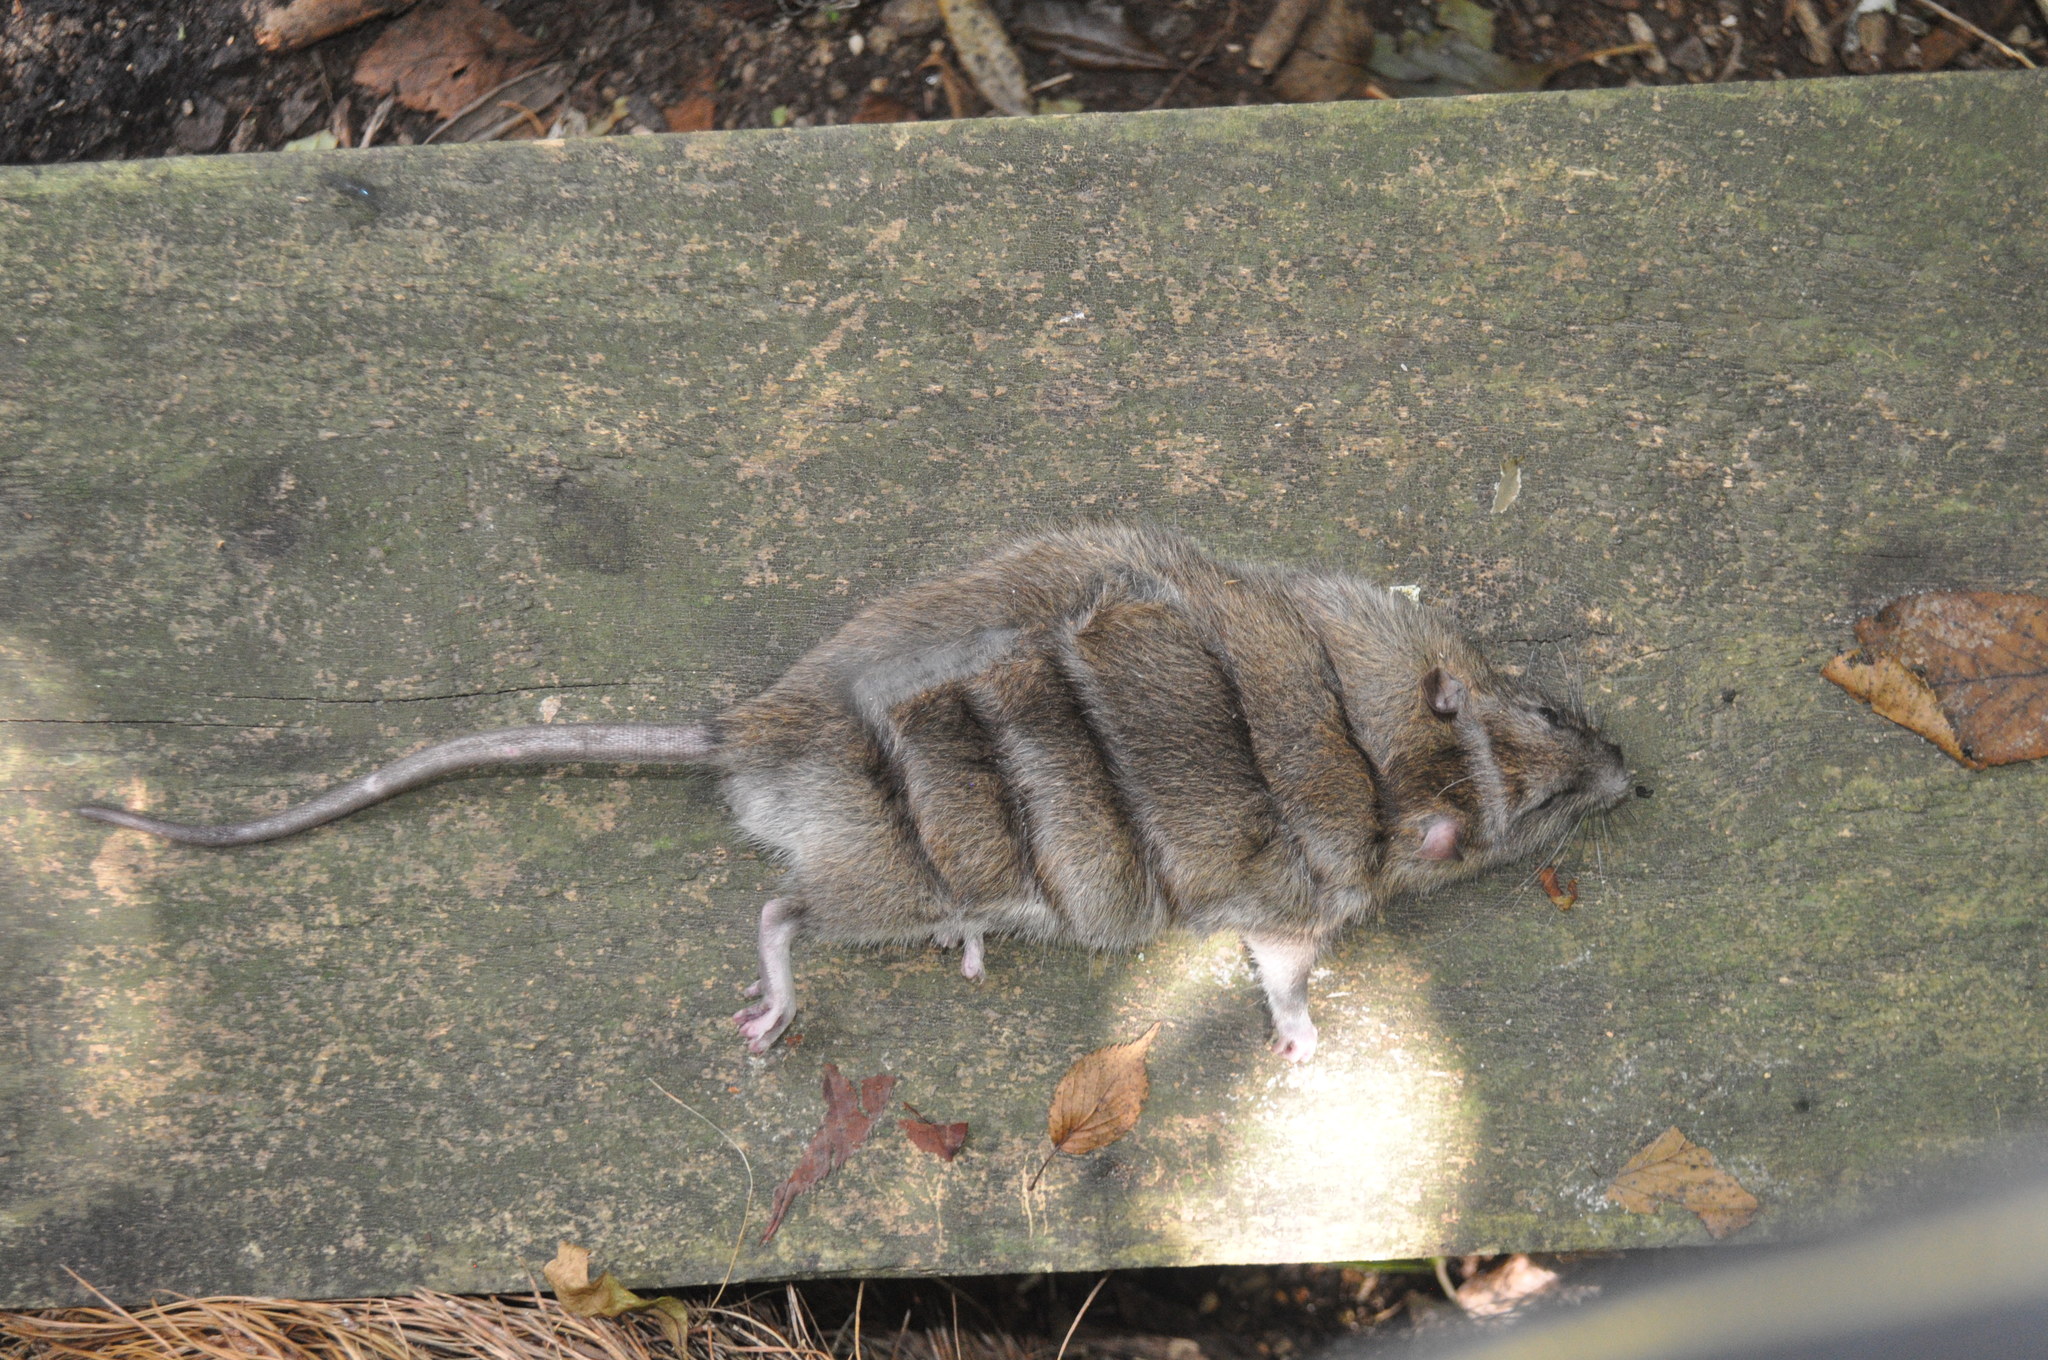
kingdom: Animalia
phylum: Chordata
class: Mammalia
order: Rodentia
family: Muridae
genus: Rattus
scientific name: Rattus norvegicus
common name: Brown rat
